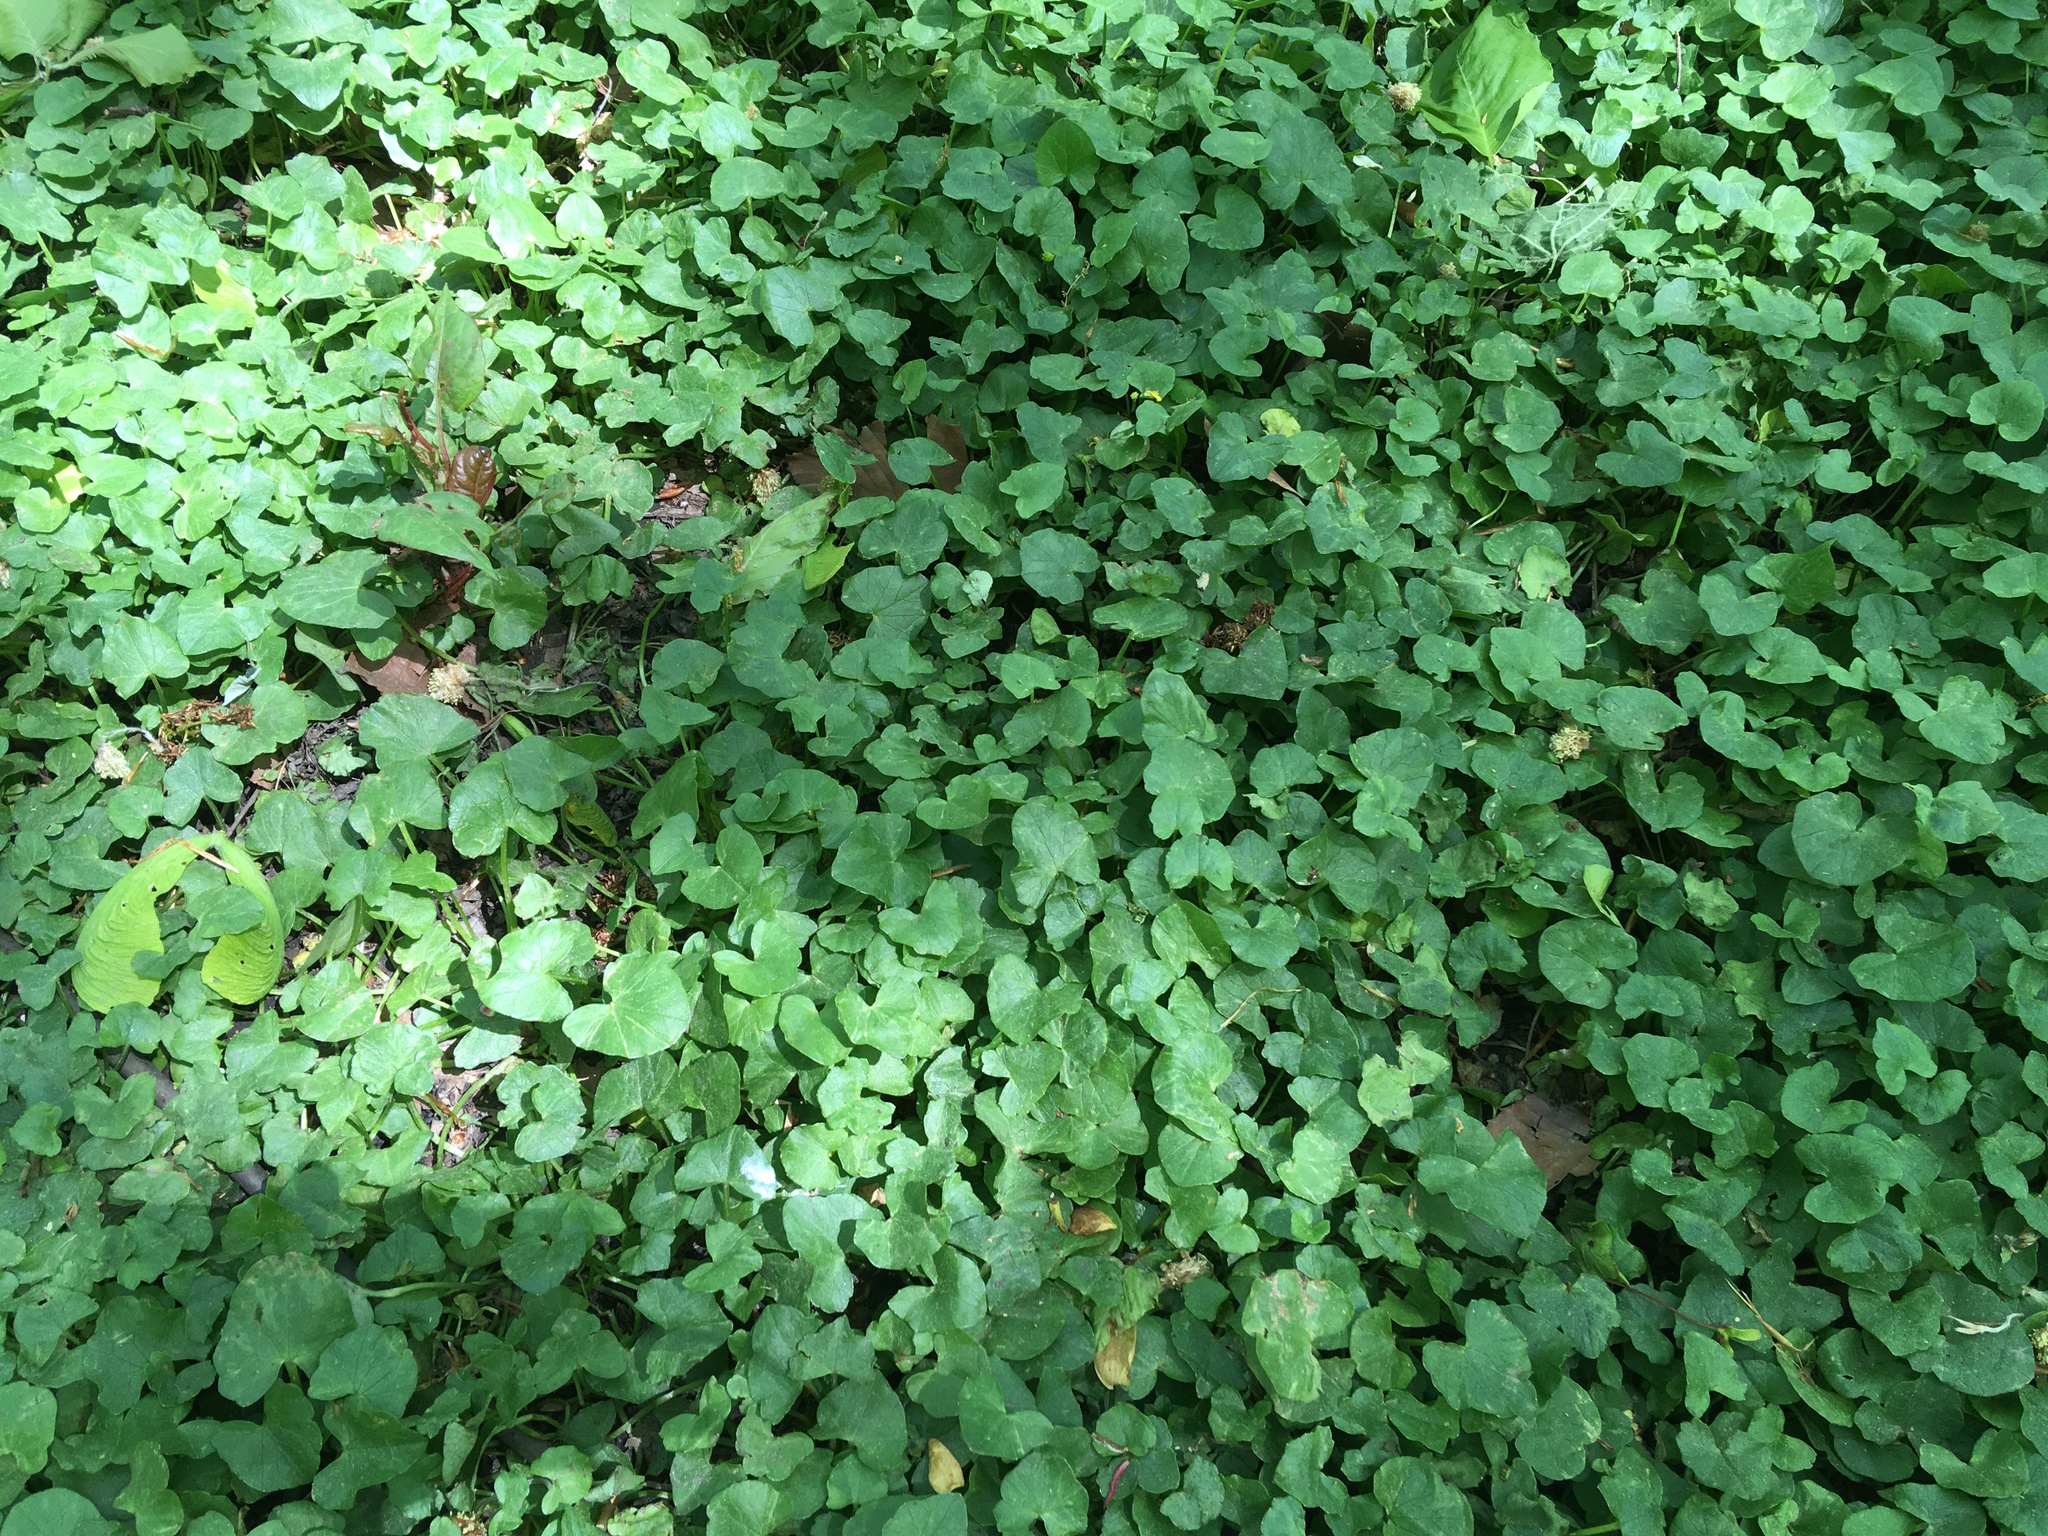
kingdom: Plantae
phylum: Tracheophyta
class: Magnoliopsida
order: Ranunculales
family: Ranunculaceae
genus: Ficaria
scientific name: Ficaria verna
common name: Lesser celandine
